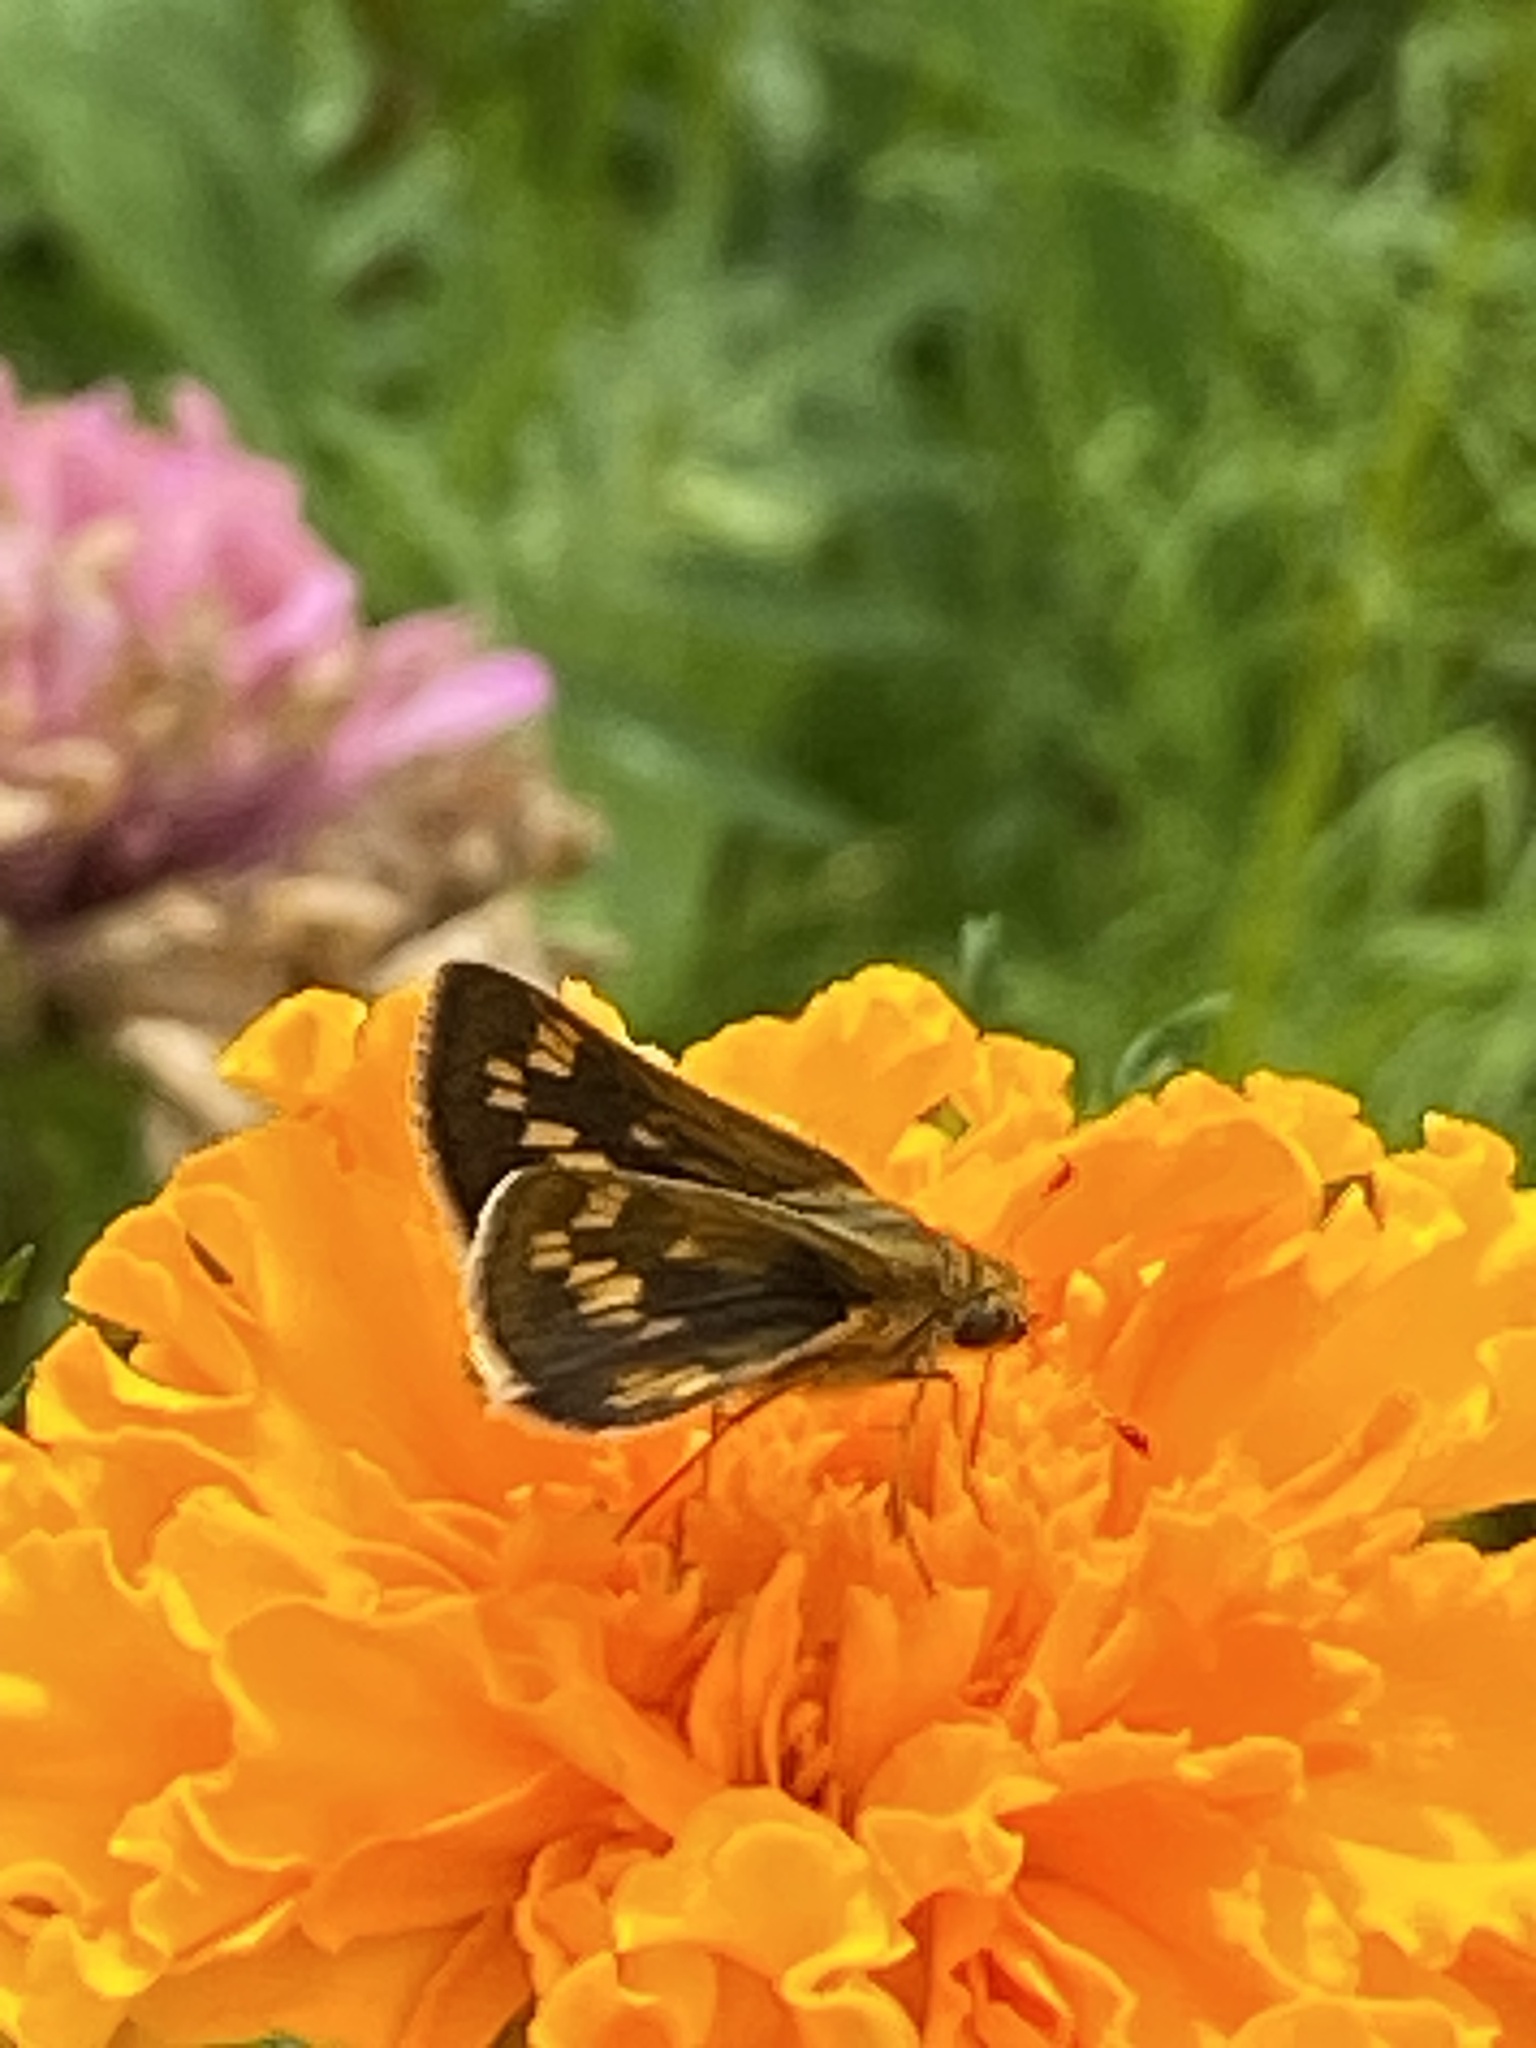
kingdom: Animalia
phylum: Arthropoda
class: Insecta
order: Lepidoptera
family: Hesperiidae
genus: Polites
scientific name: Polites coras
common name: Peck's skipper
